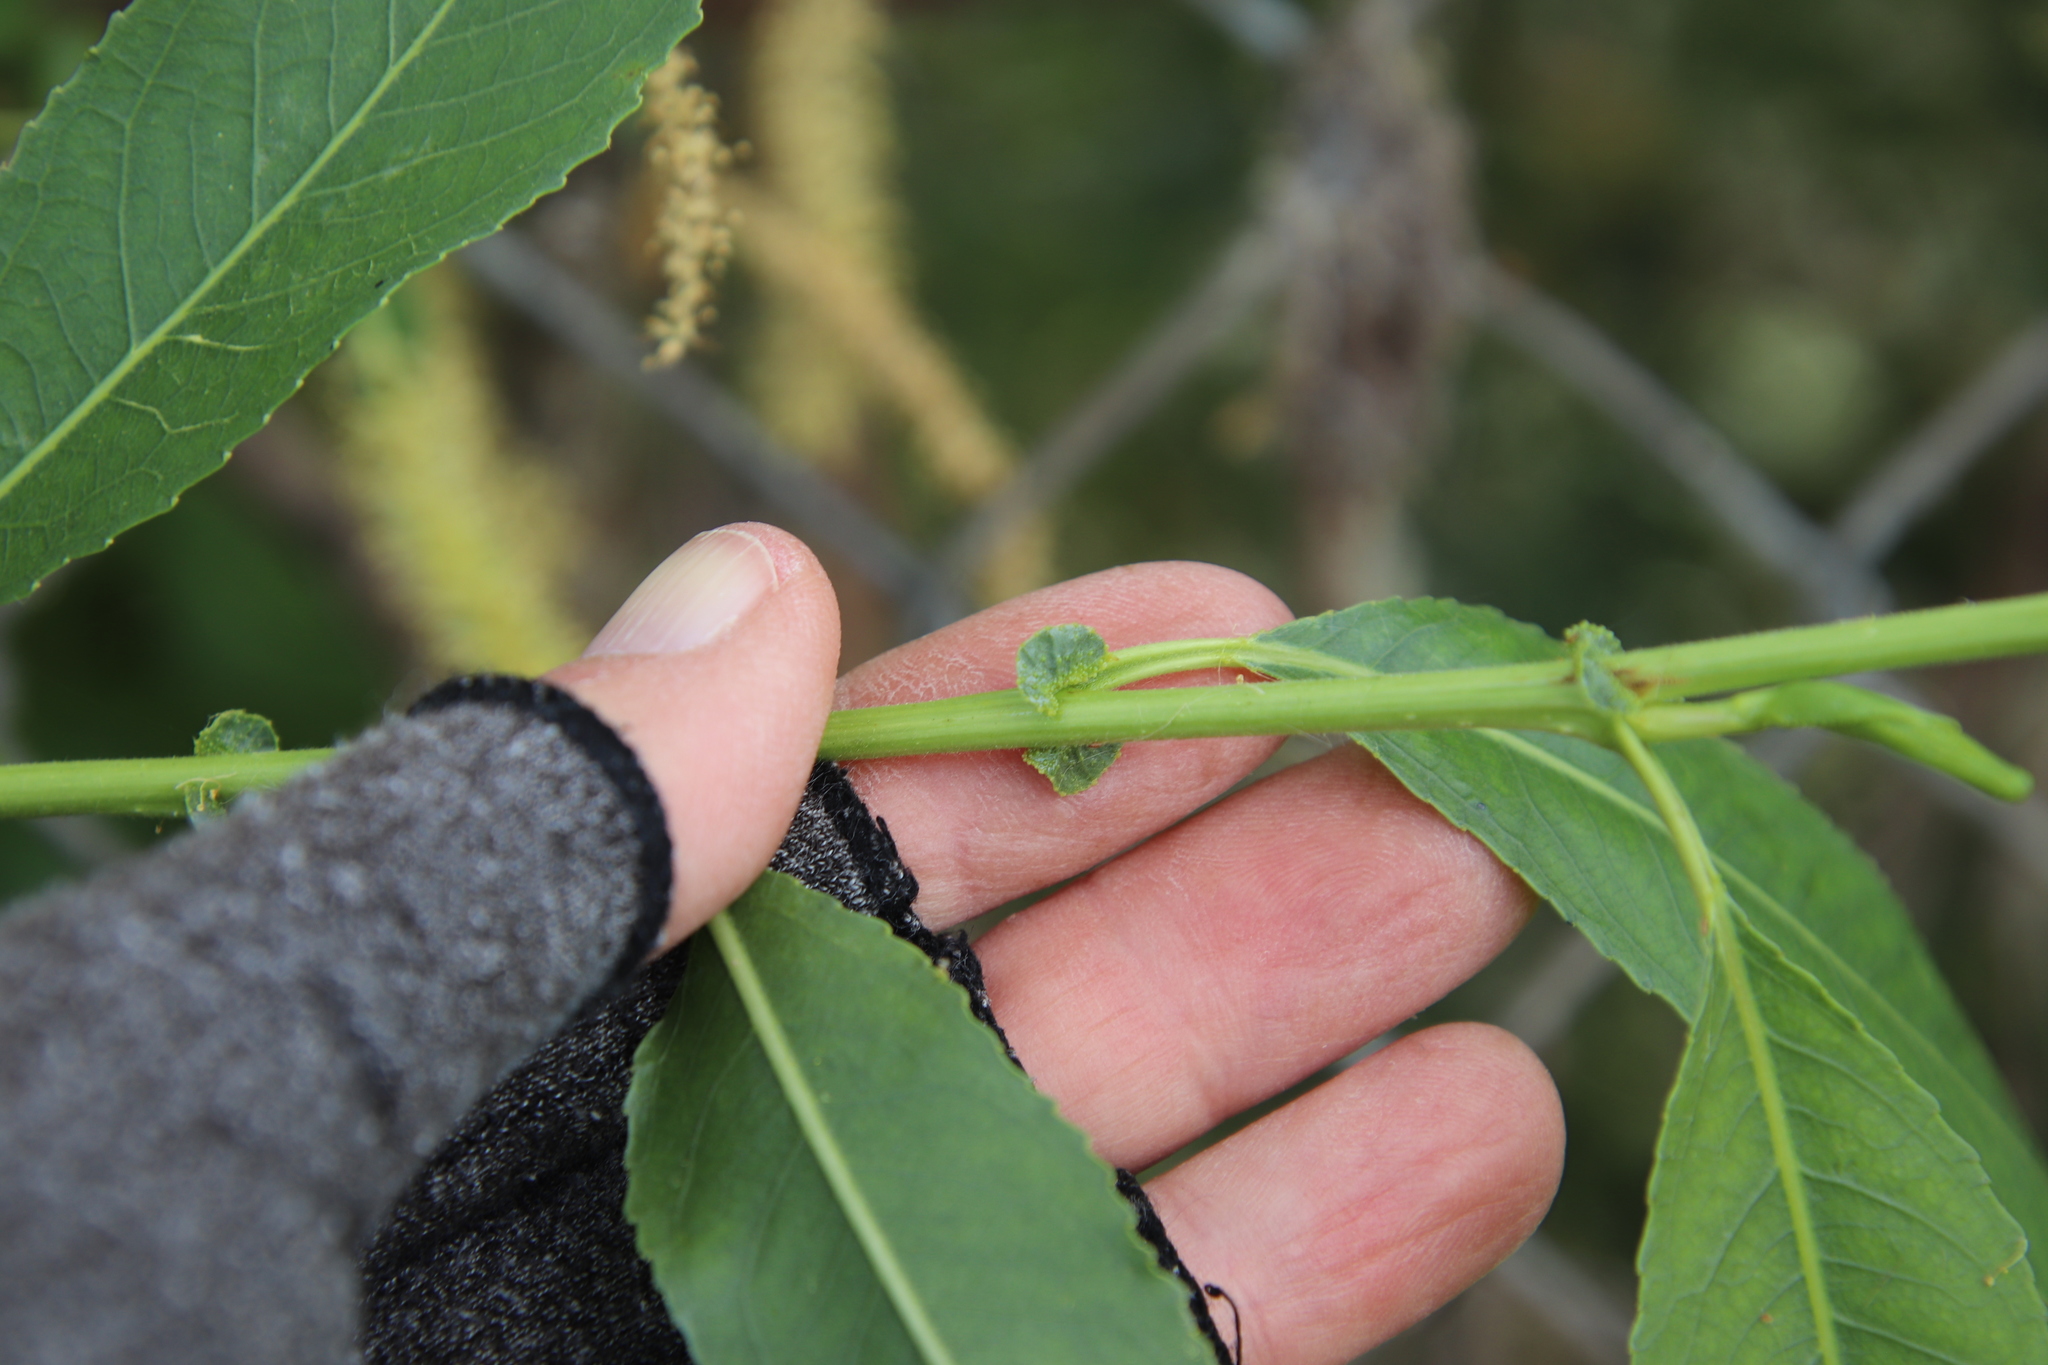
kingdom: Plantae
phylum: Tracheophyta
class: Magnoliopsida
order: Malpighiales
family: Salicaceae
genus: Salix
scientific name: Salix gooddingii
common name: Goodding's willow
